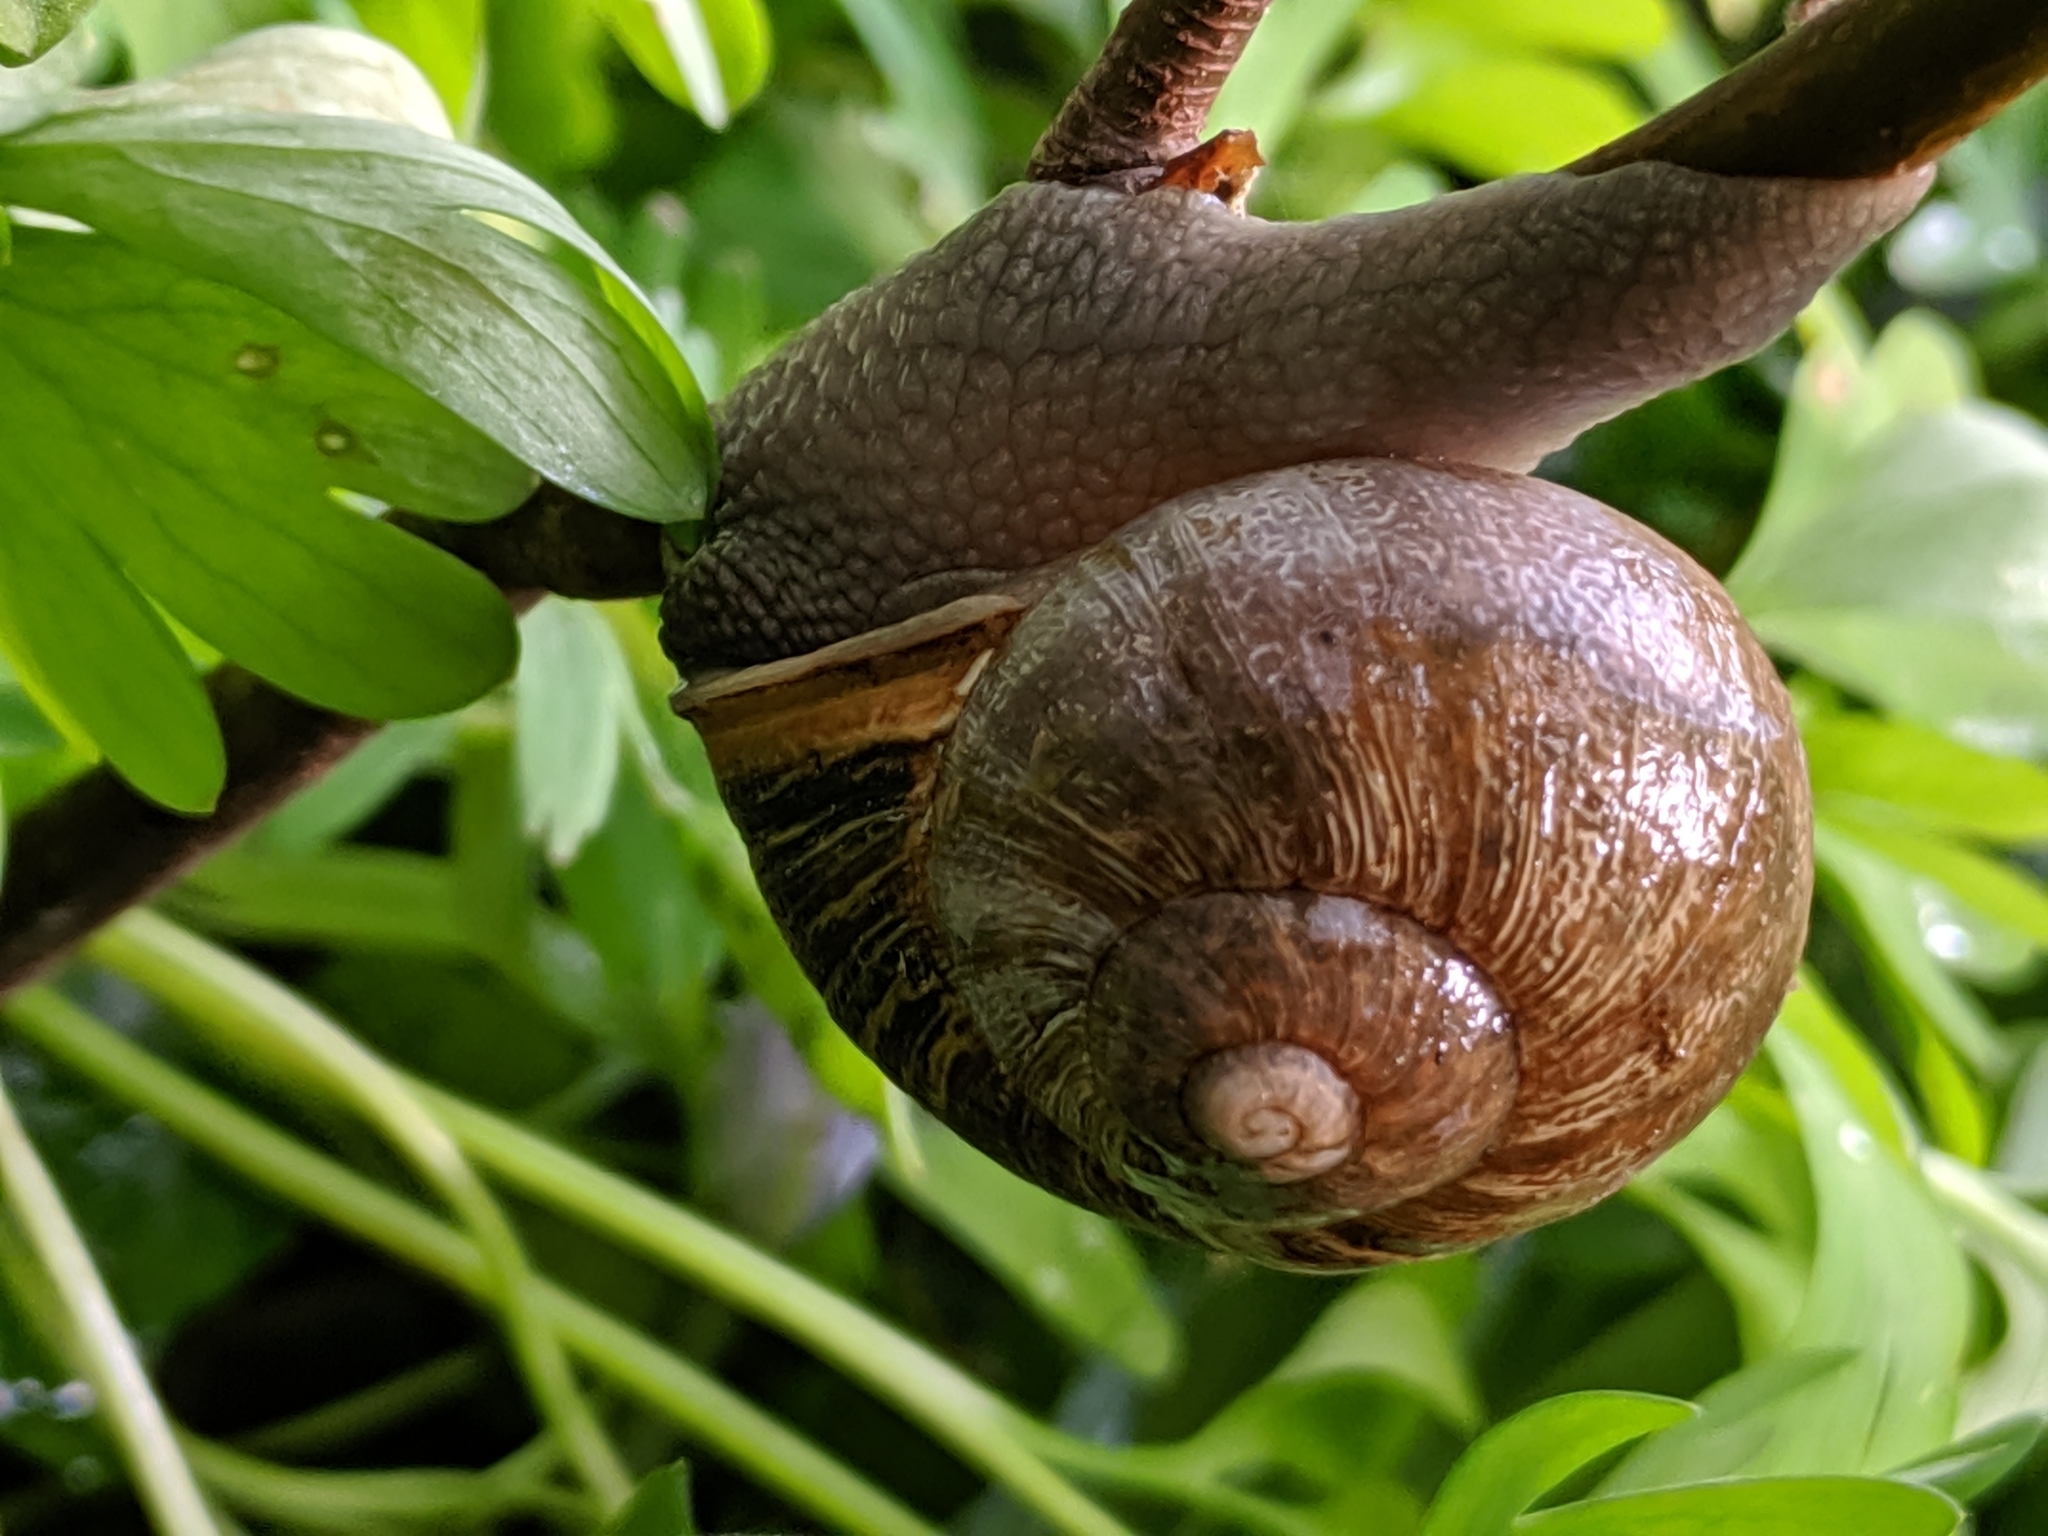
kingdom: Animalia
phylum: Mollusca
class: Gastropoda
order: Stylommatophora
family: Helicidae
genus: Cornu
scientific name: Cornu aspersum
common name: Brown garden snail
